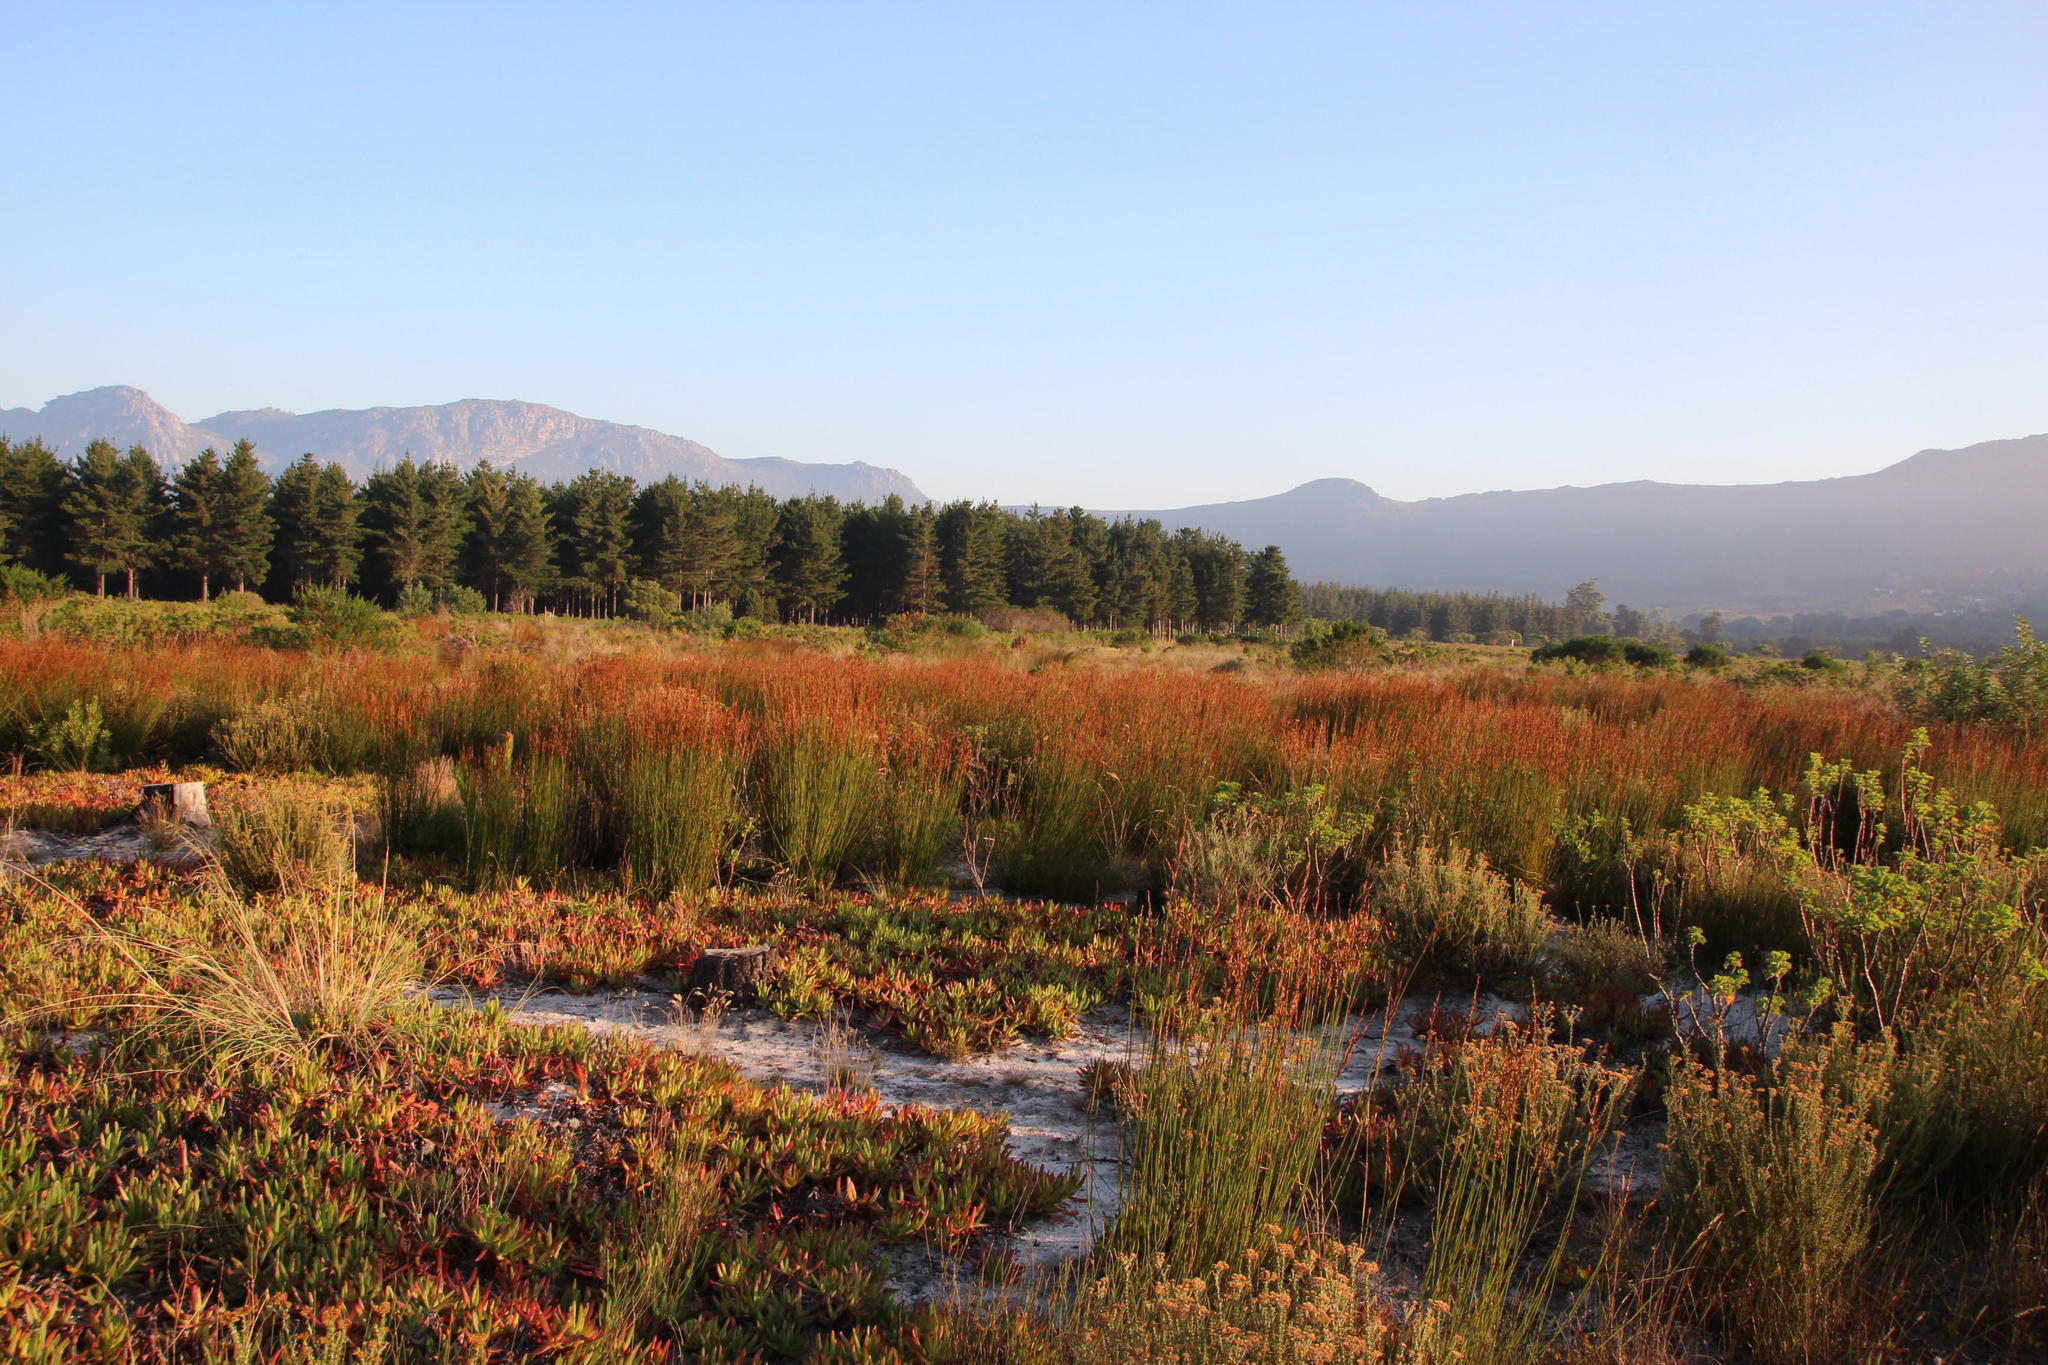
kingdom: Plantae
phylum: Tracheophyta
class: Liliopsida
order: Poales
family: Restionaceae
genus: Restio
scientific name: Restio bifurcus
